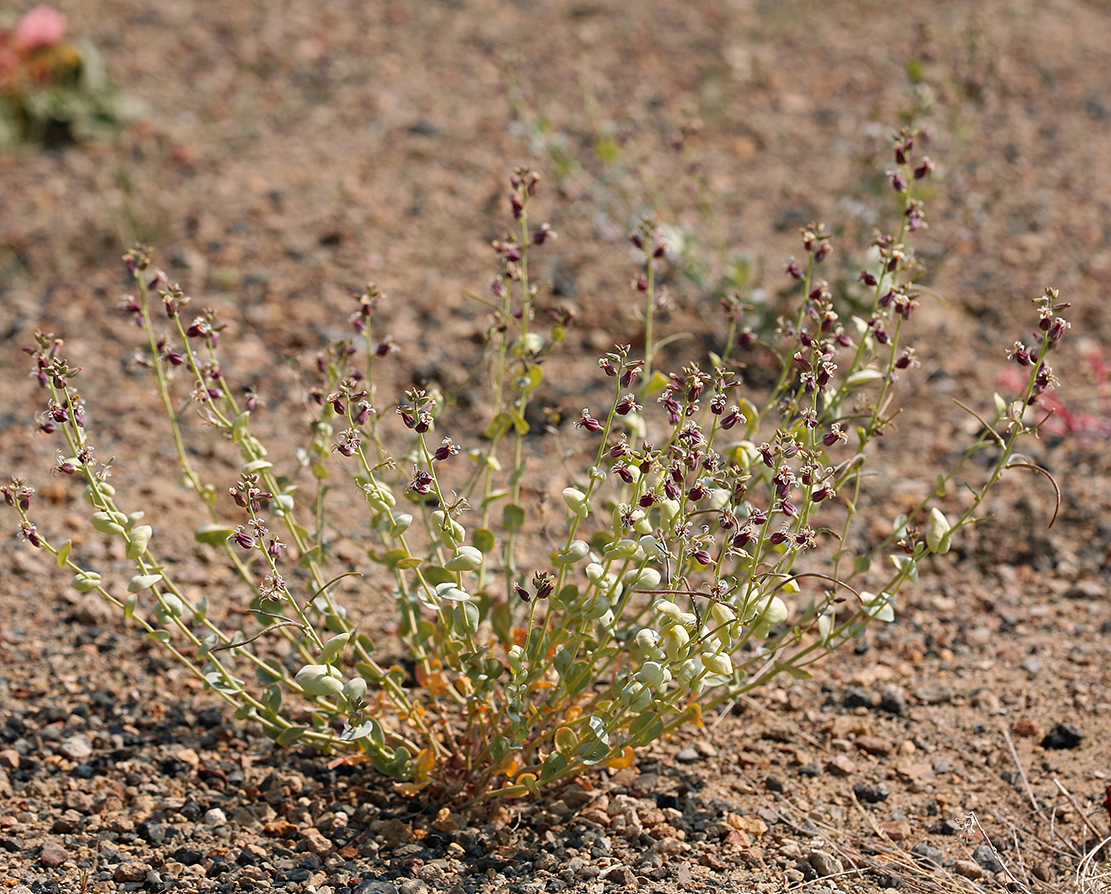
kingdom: Plantae
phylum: Tracheophyta
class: Magnoliopsida
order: Brassicales
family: Brassicaceae
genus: Streptanthus
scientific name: Streptanthus tortuosus
